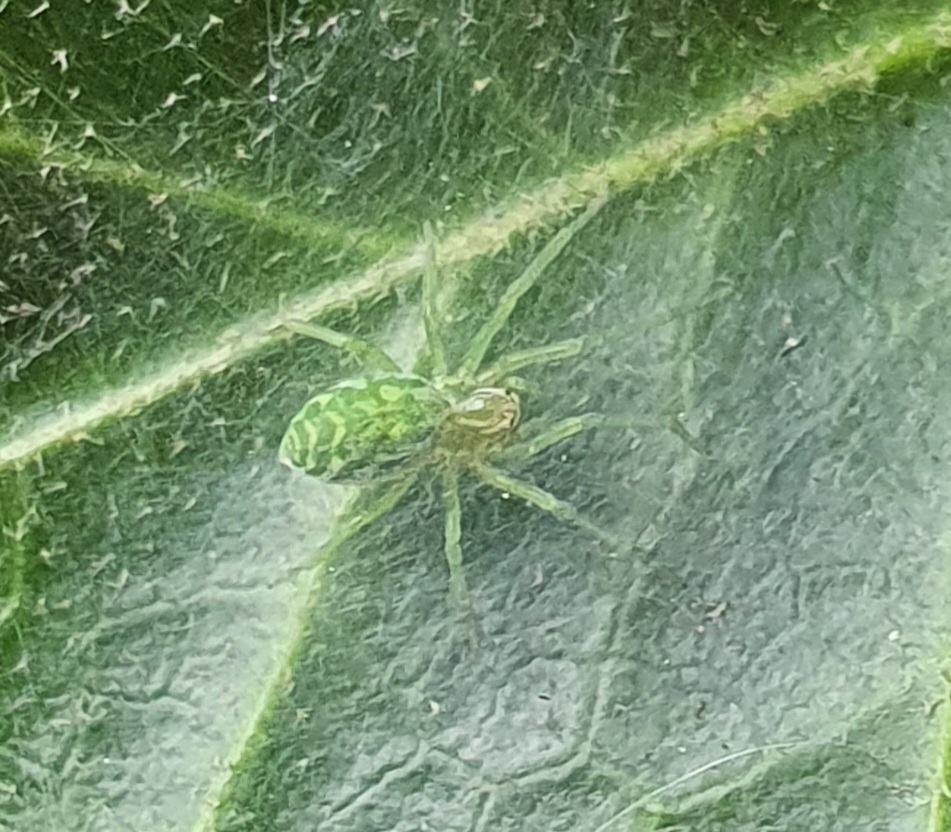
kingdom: Animalia
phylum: Arthropoda
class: Arachnida
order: Araneae
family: Dictynidae
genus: Nigma
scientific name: Nigma walckenaeri
